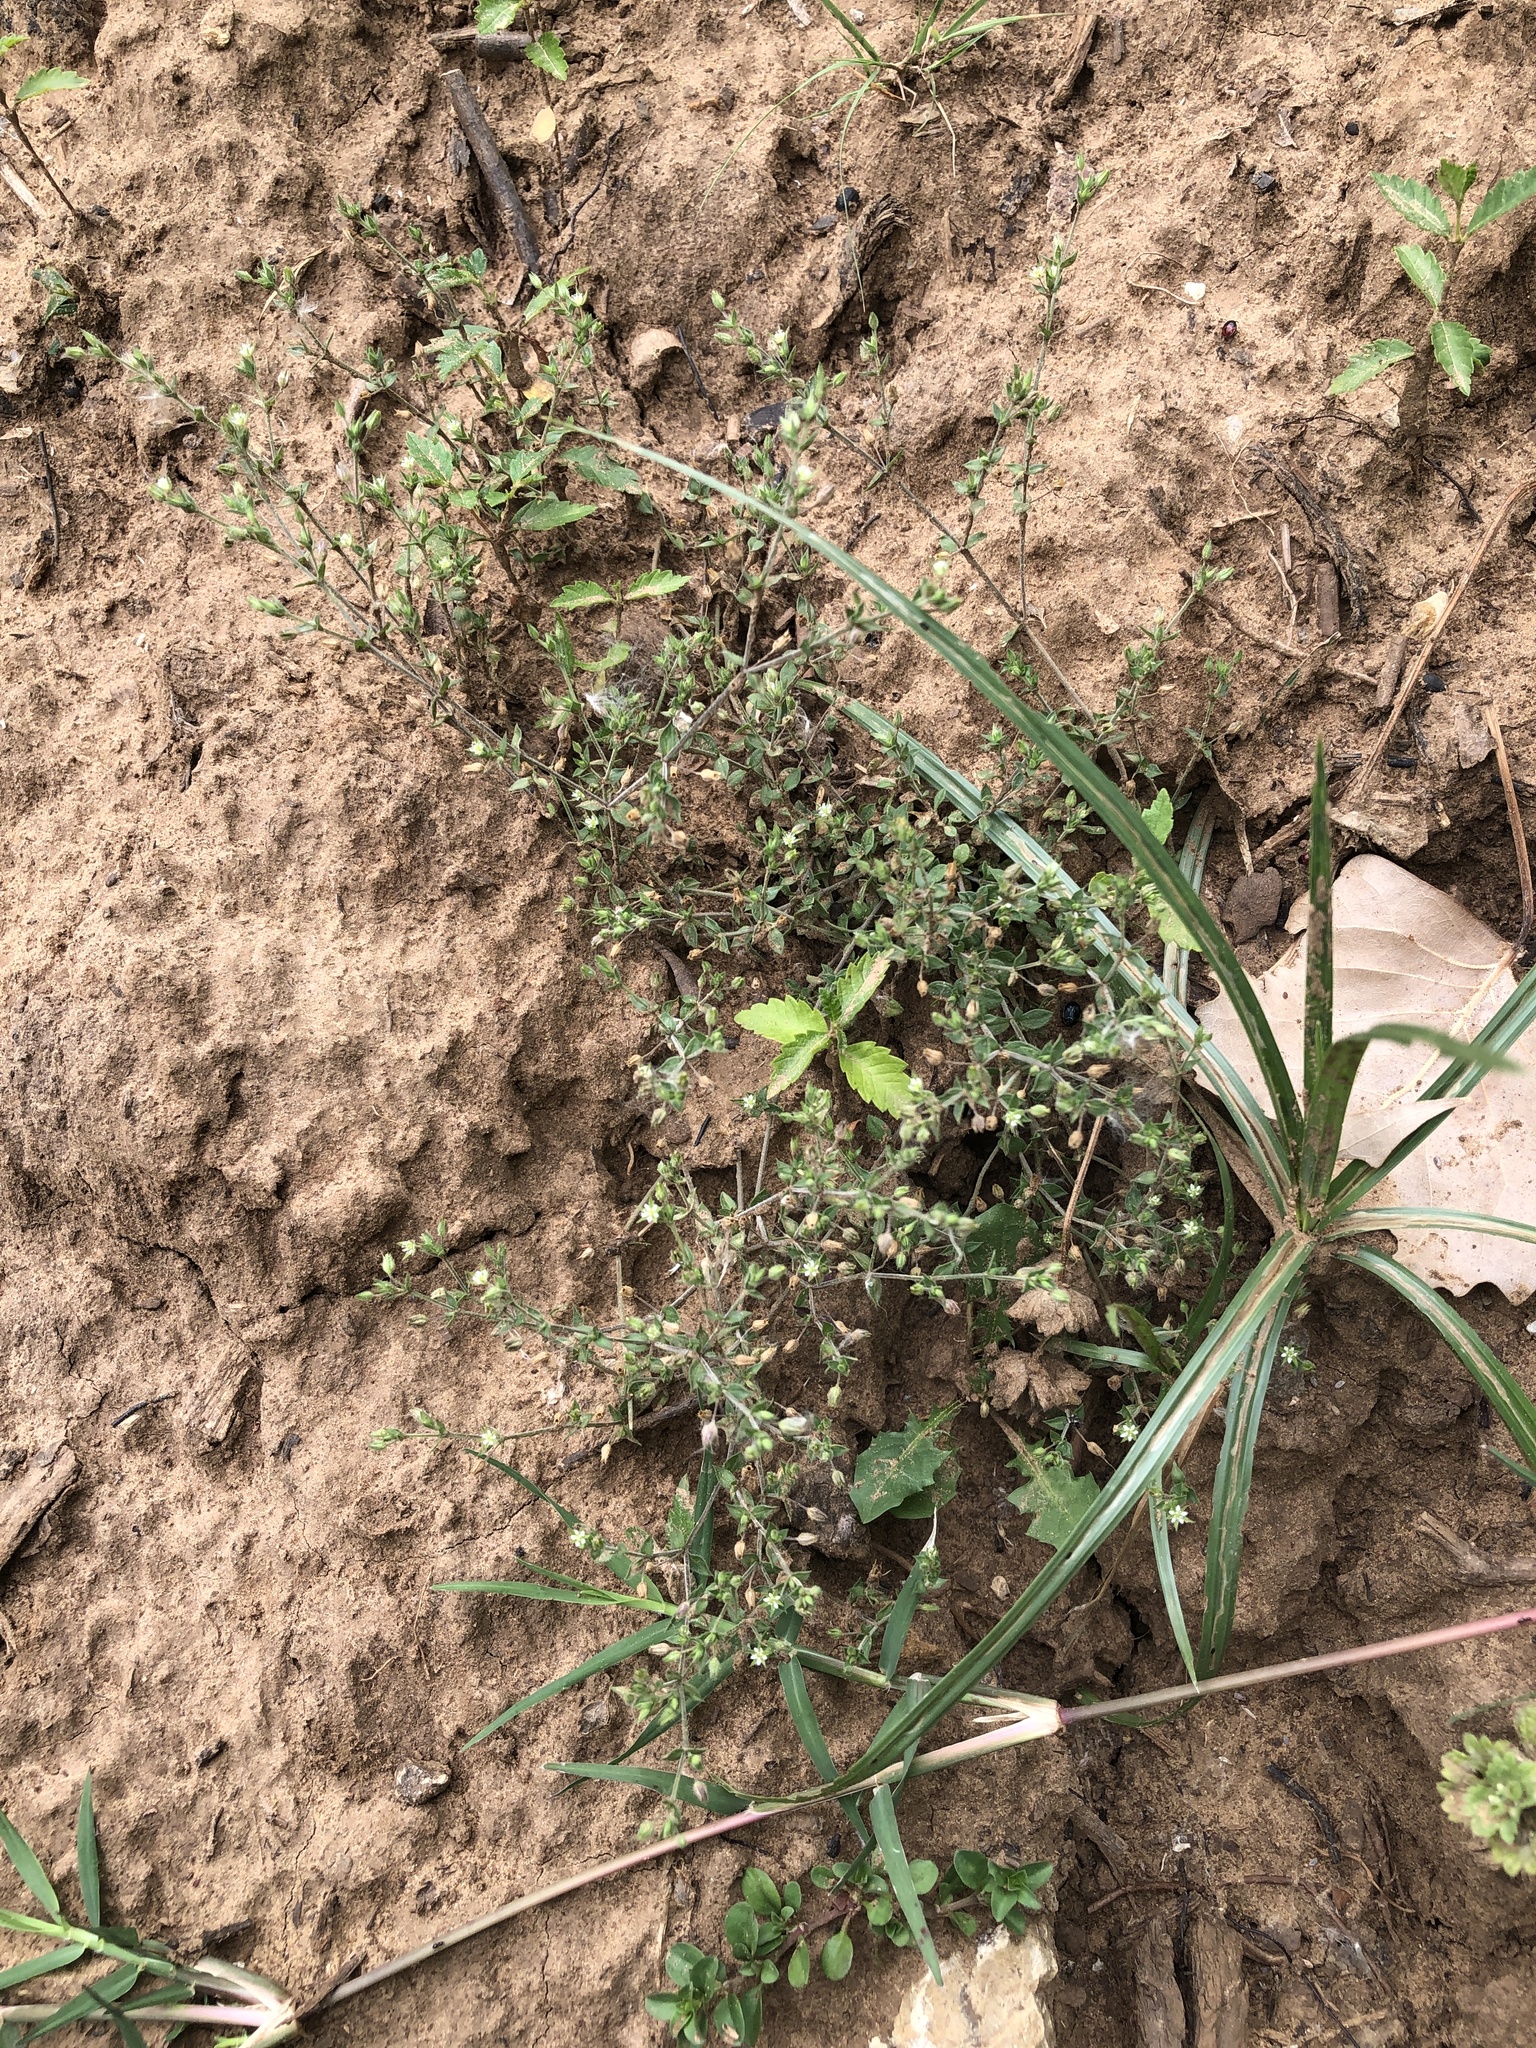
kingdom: Plantae
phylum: Tracheophyta
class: Magnoliopsida
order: Caryophyllales
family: Caryophyllaceae
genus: Arenaria
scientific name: Arenaria serpyllifolia
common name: Thyme-leaved sandwort
